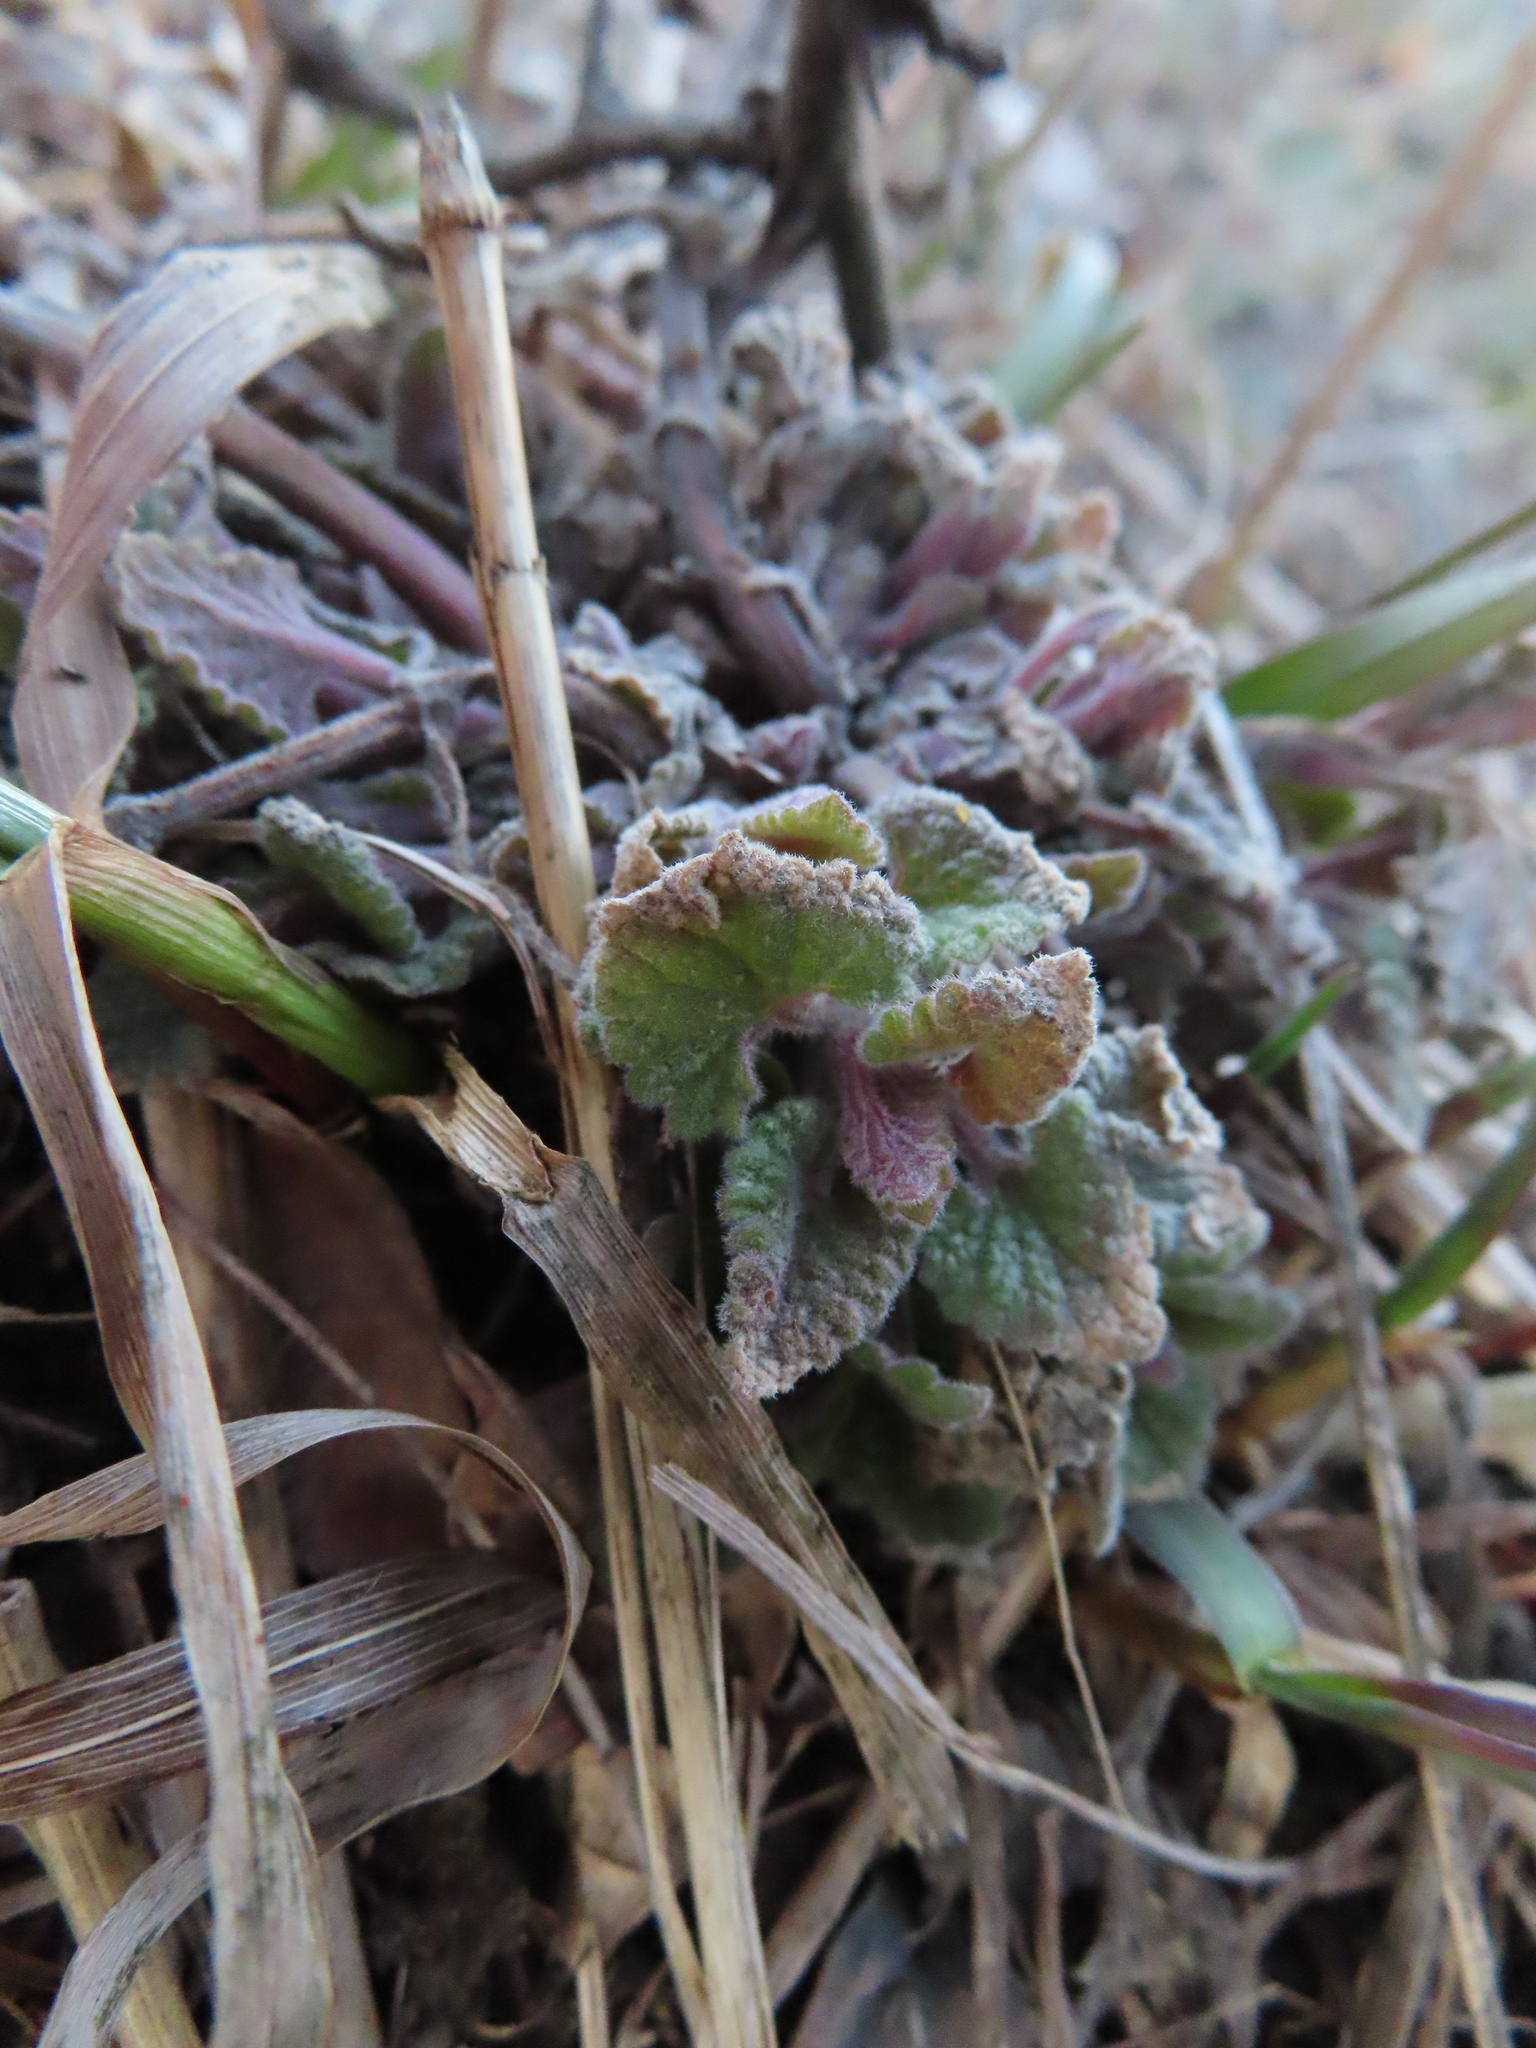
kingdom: Plantae
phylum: Tracheophyta
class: Magnoliopsida
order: Lamiales
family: Lamiaceae
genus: Nepeta
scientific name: Nepeta cataria
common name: Catnip
